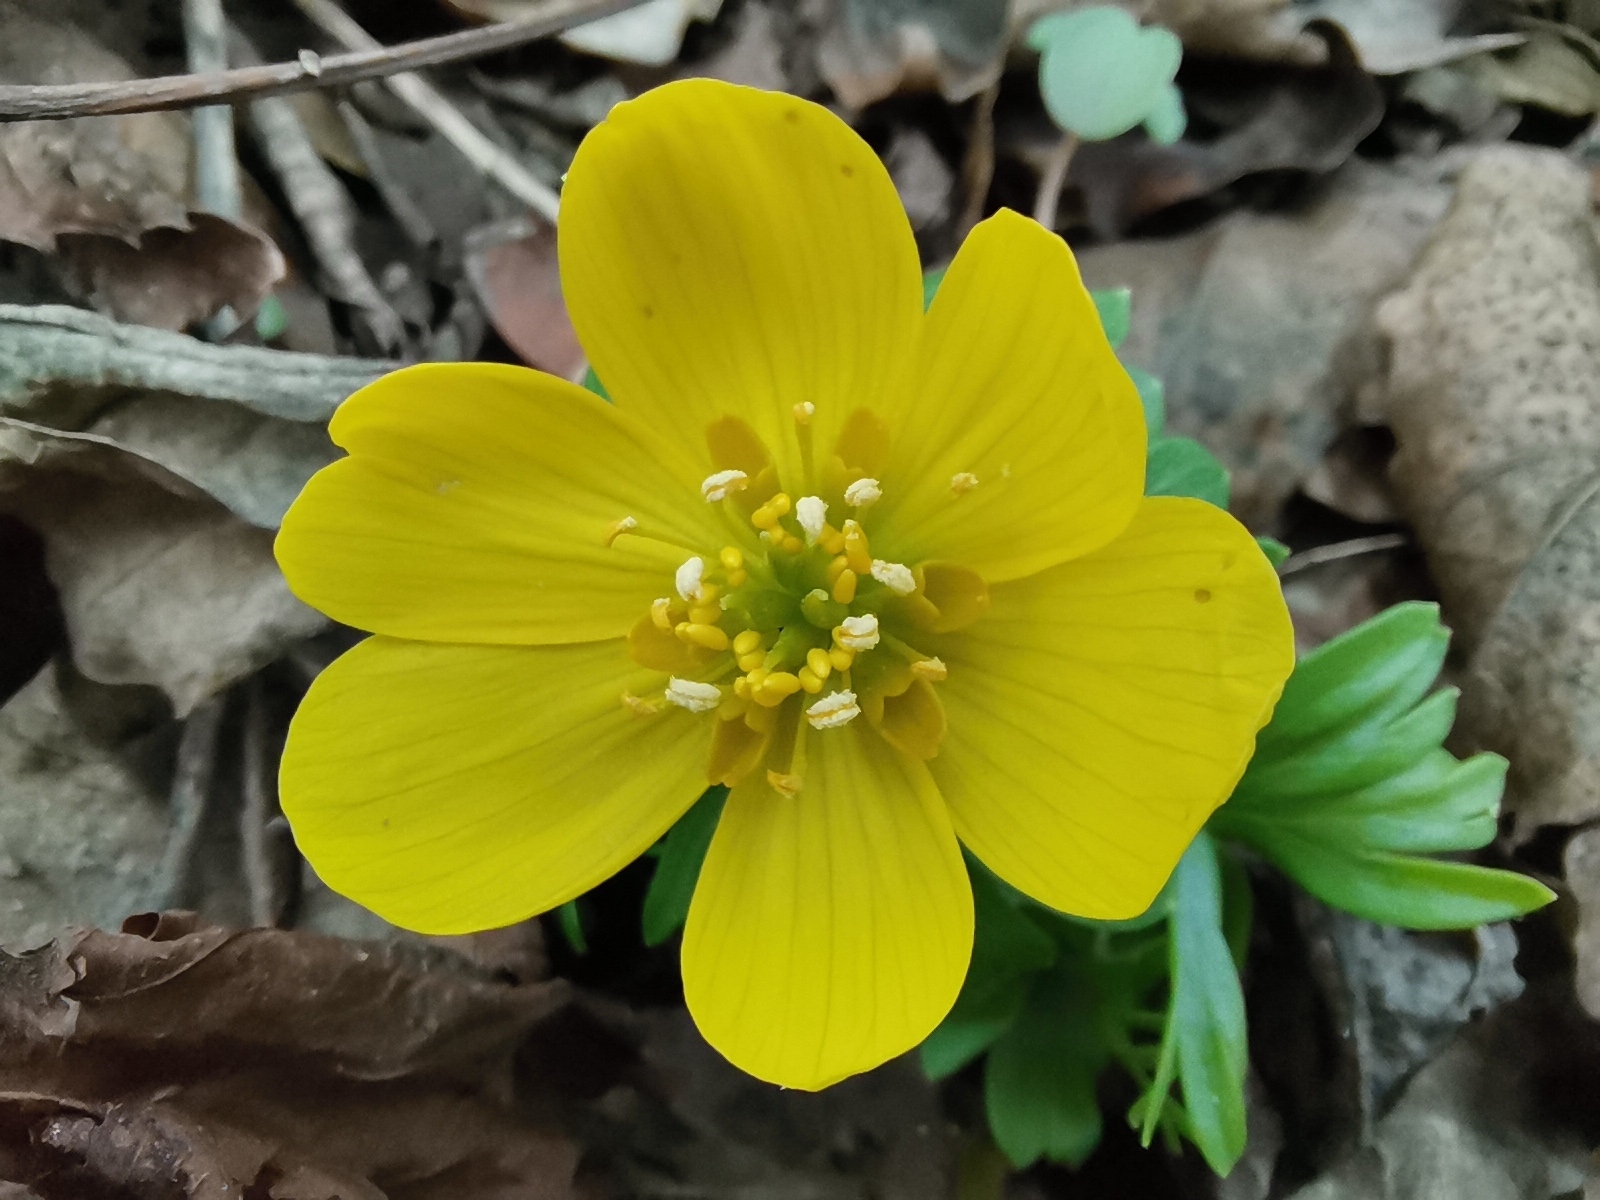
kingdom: Plantae
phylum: Tracheophyta
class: Magnoliopsida
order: Ranunculales
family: Ranunculaceae
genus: Eranthis
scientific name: Eranthis hyemalis
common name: Winter aconite
